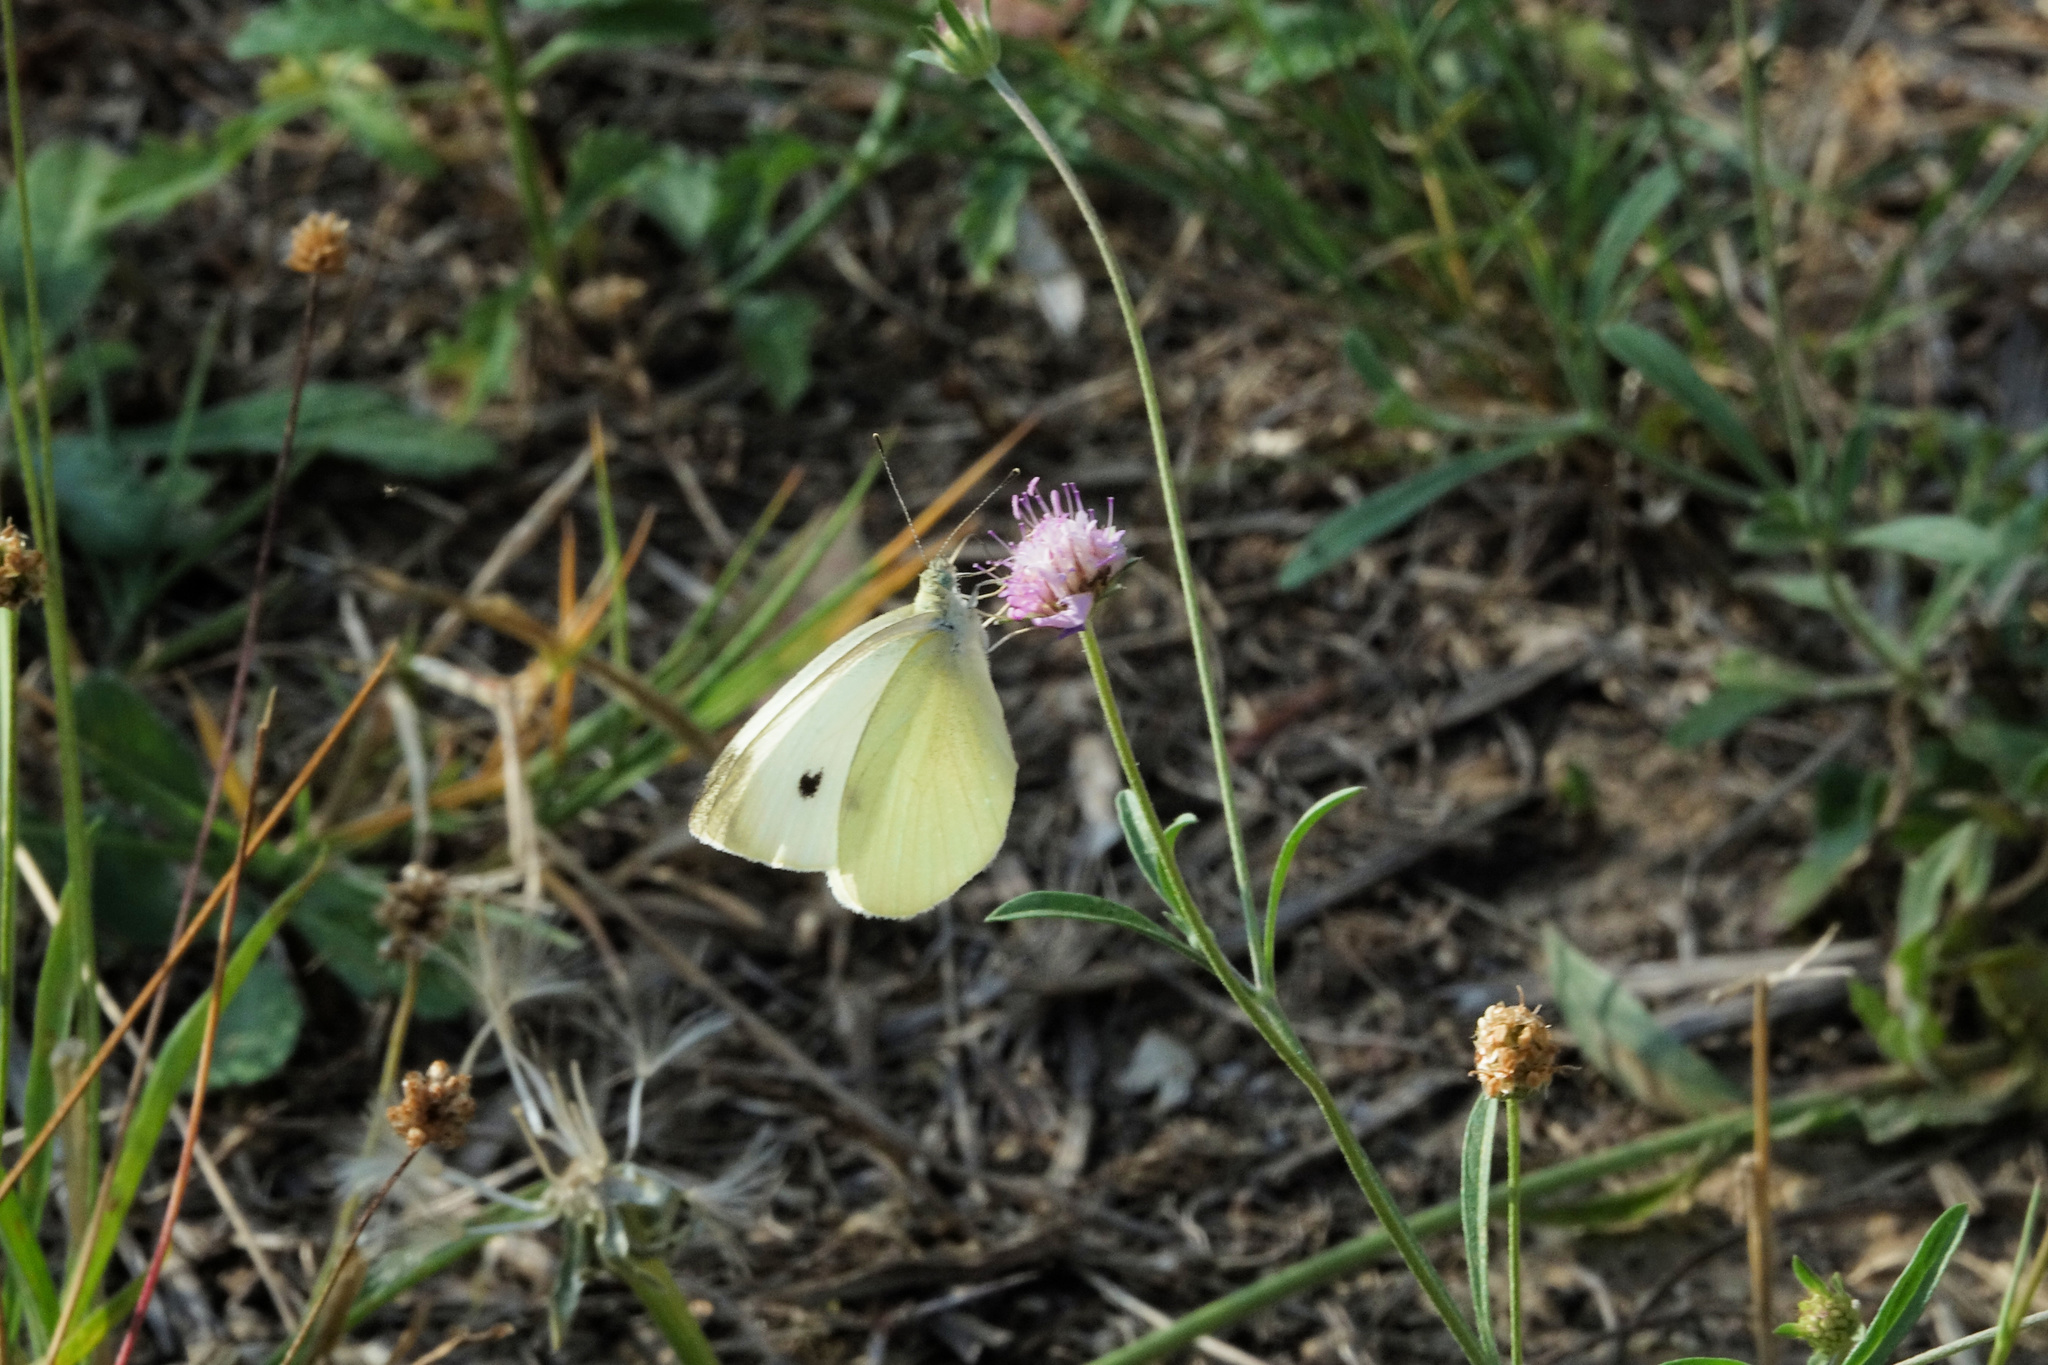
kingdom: Animalia
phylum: Arthropoda
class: Insecta
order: Lepidoptera
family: Pieridae
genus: Pieris
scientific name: Pieris rapae
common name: Small white
